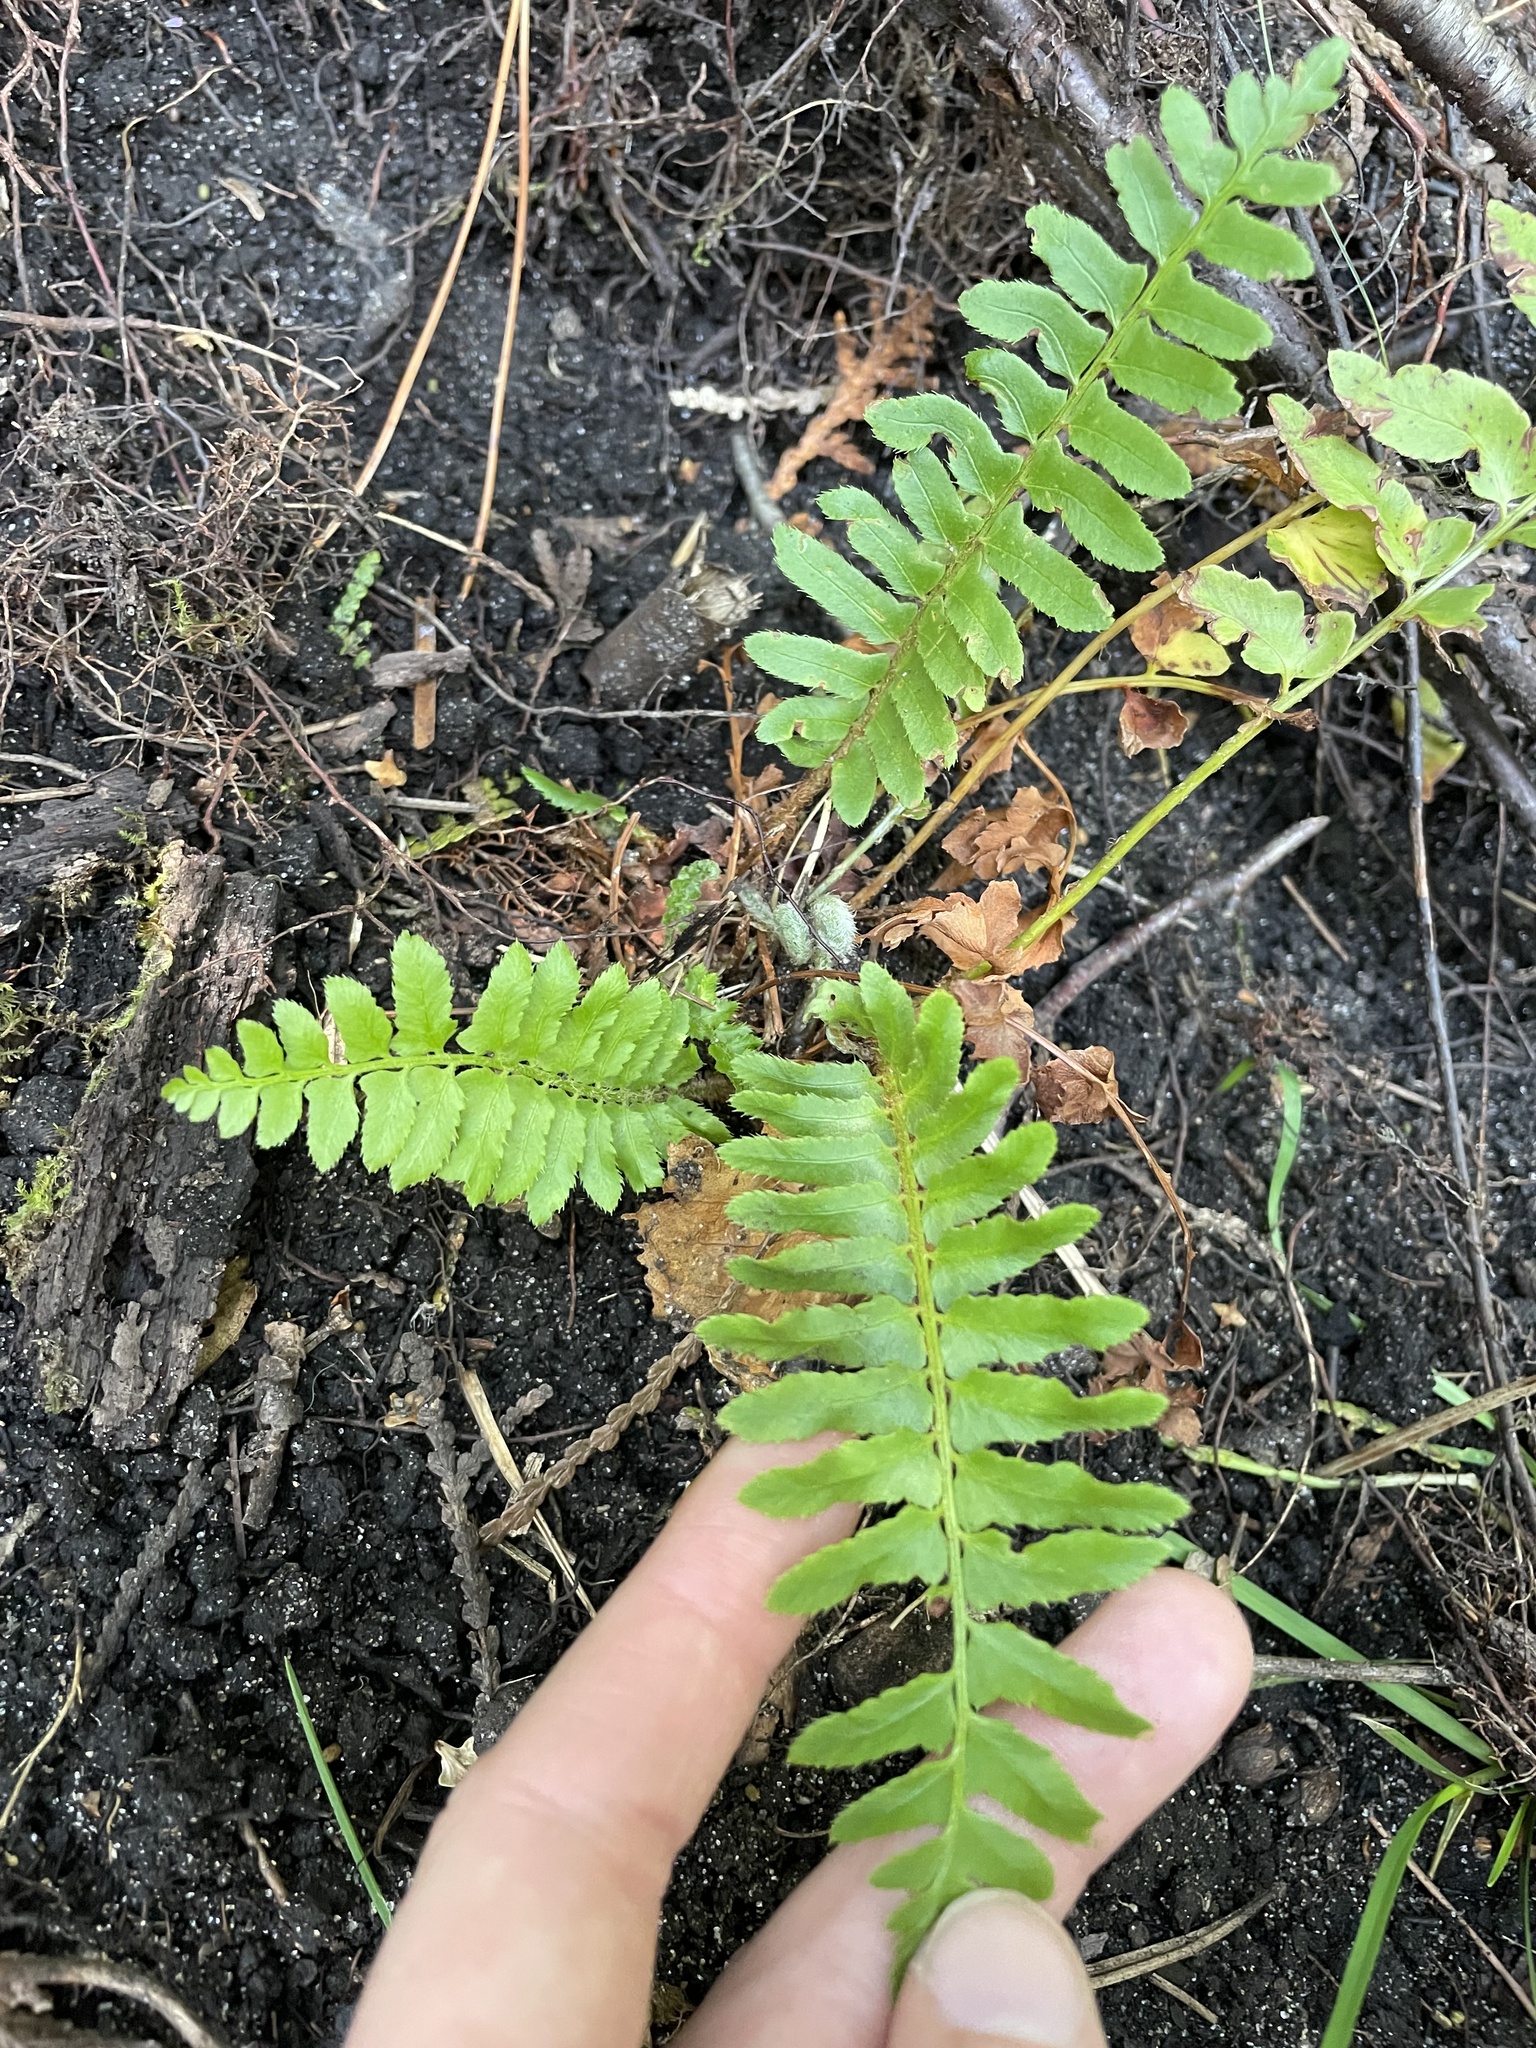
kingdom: Plantae
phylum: Tracheophyta
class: Polypodiopsida
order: Polypodiales
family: Dryopteridaceae
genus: Polystichum
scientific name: Polystichum acrostichoides
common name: Christmas fern
